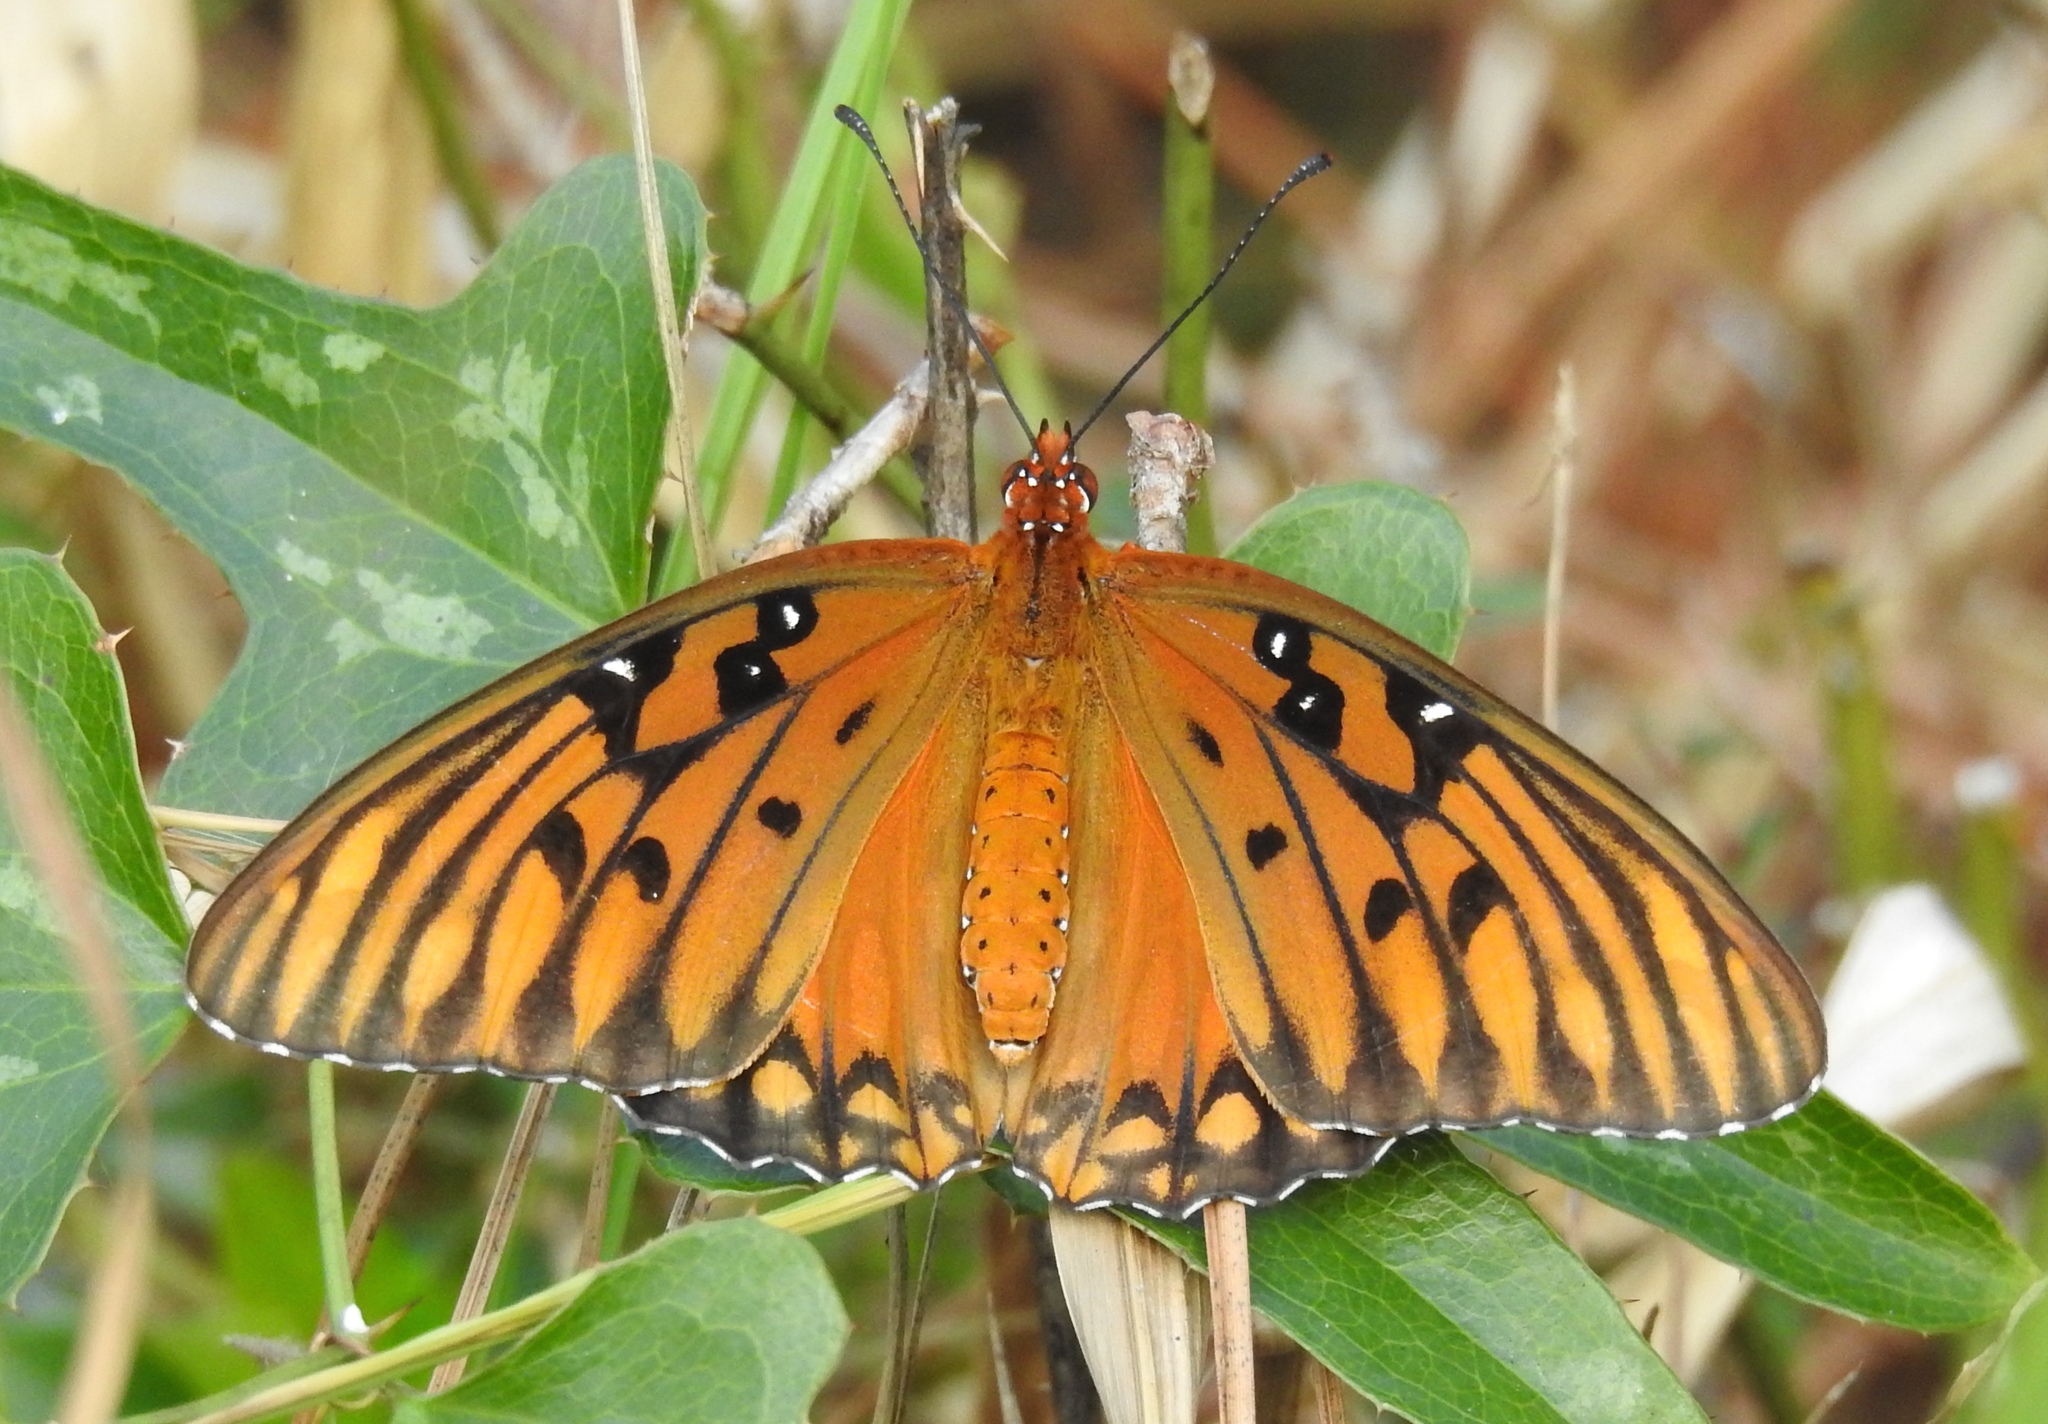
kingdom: Animalia
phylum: Arthropoda
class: Insecta
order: Lepidoptera
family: Nymphalidae
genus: Dione
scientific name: Dione vanillae
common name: Gulf fritillary
